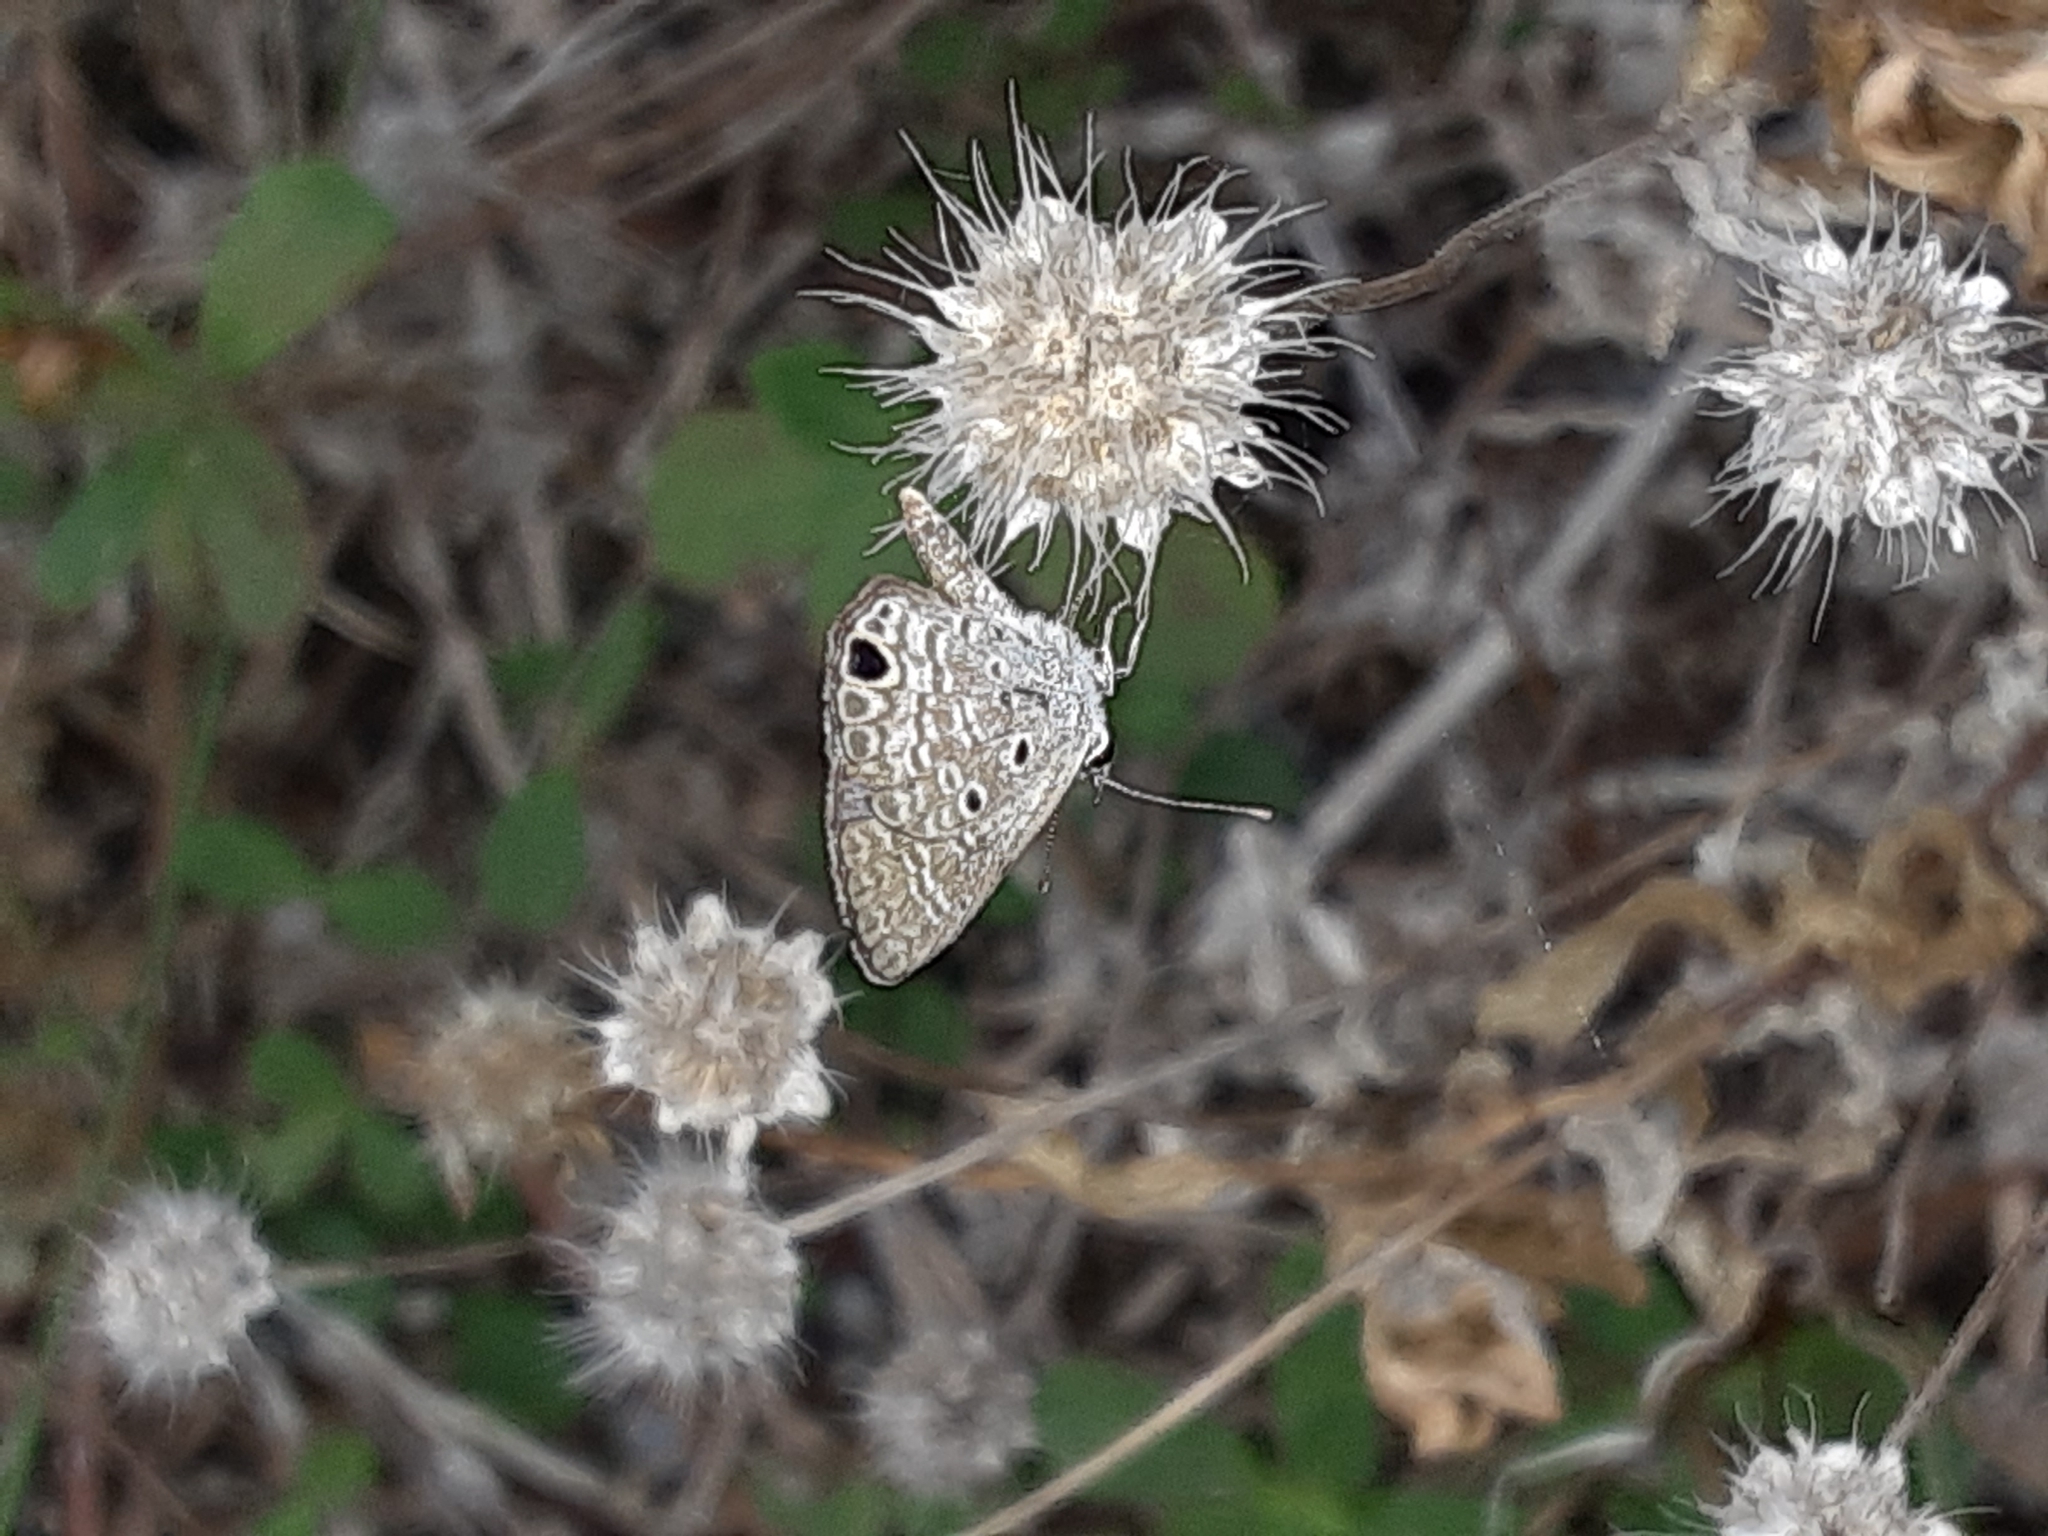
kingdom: Animalia
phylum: Arthropoda
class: Insecta
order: Lepidoptera
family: Lycaenidae
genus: Hemiargus
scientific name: Hemiargus ceraunus
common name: Ceraunus blue
